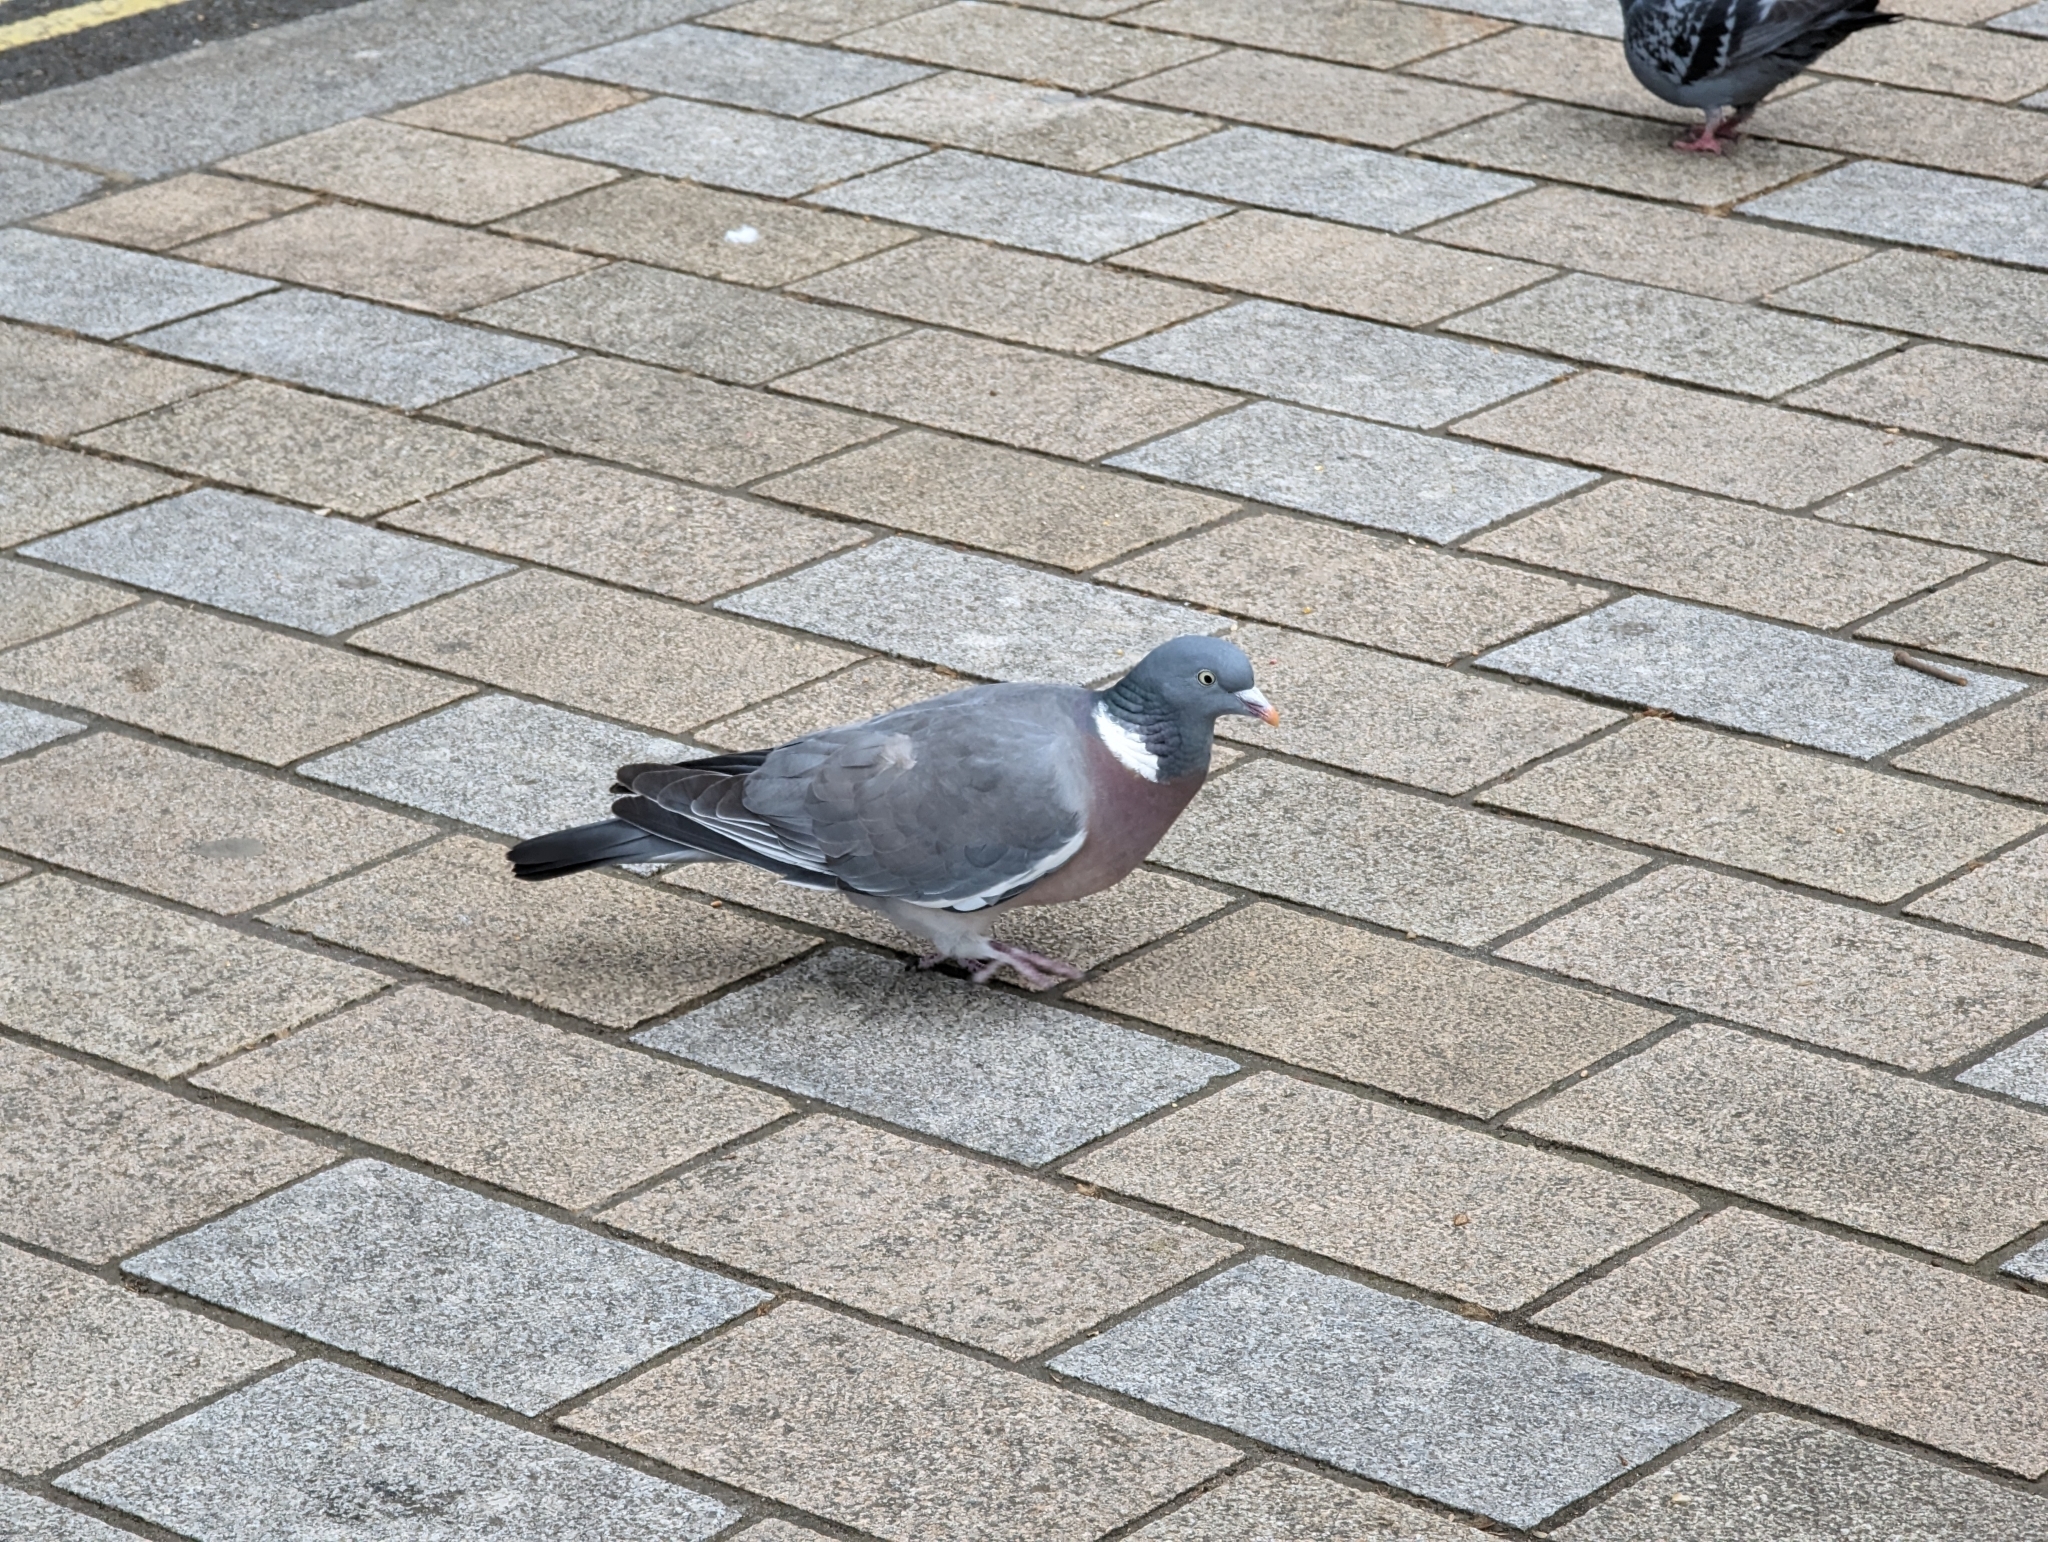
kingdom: Animalia
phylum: Chordata
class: Aves
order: Columbiformes
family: Columbidae
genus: Columba
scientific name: Columba palumbus
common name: Common wood pigeon
